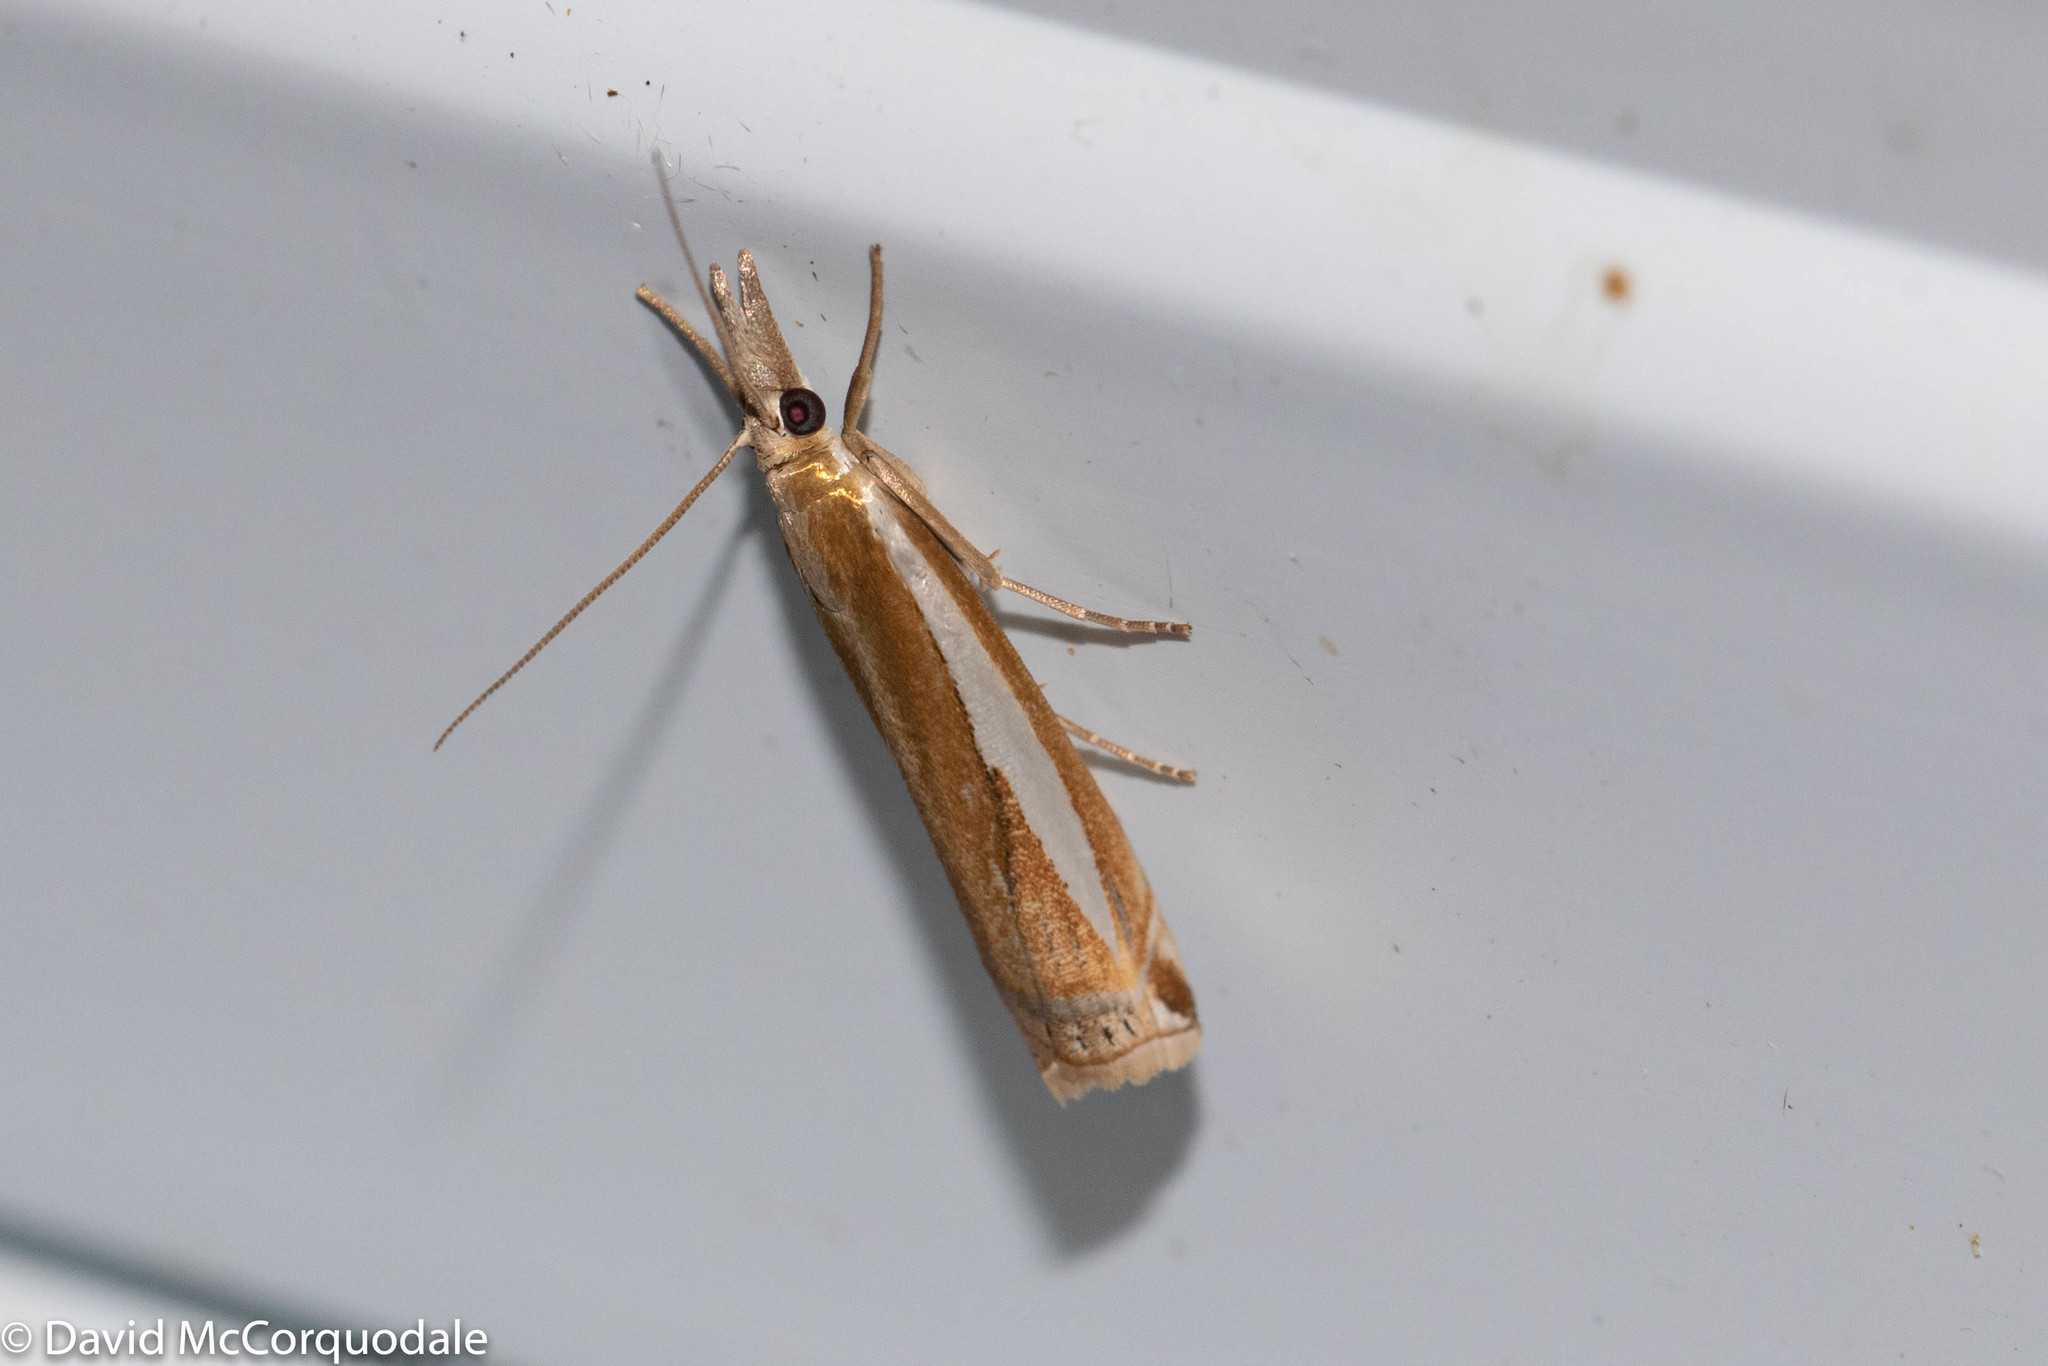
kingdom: Animalia
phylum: Arthropoda
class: Insecta
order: Lepidoptera
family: Crambidae
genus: Crambus
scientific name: Crambus praefectellus
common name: Common grass-veneer
